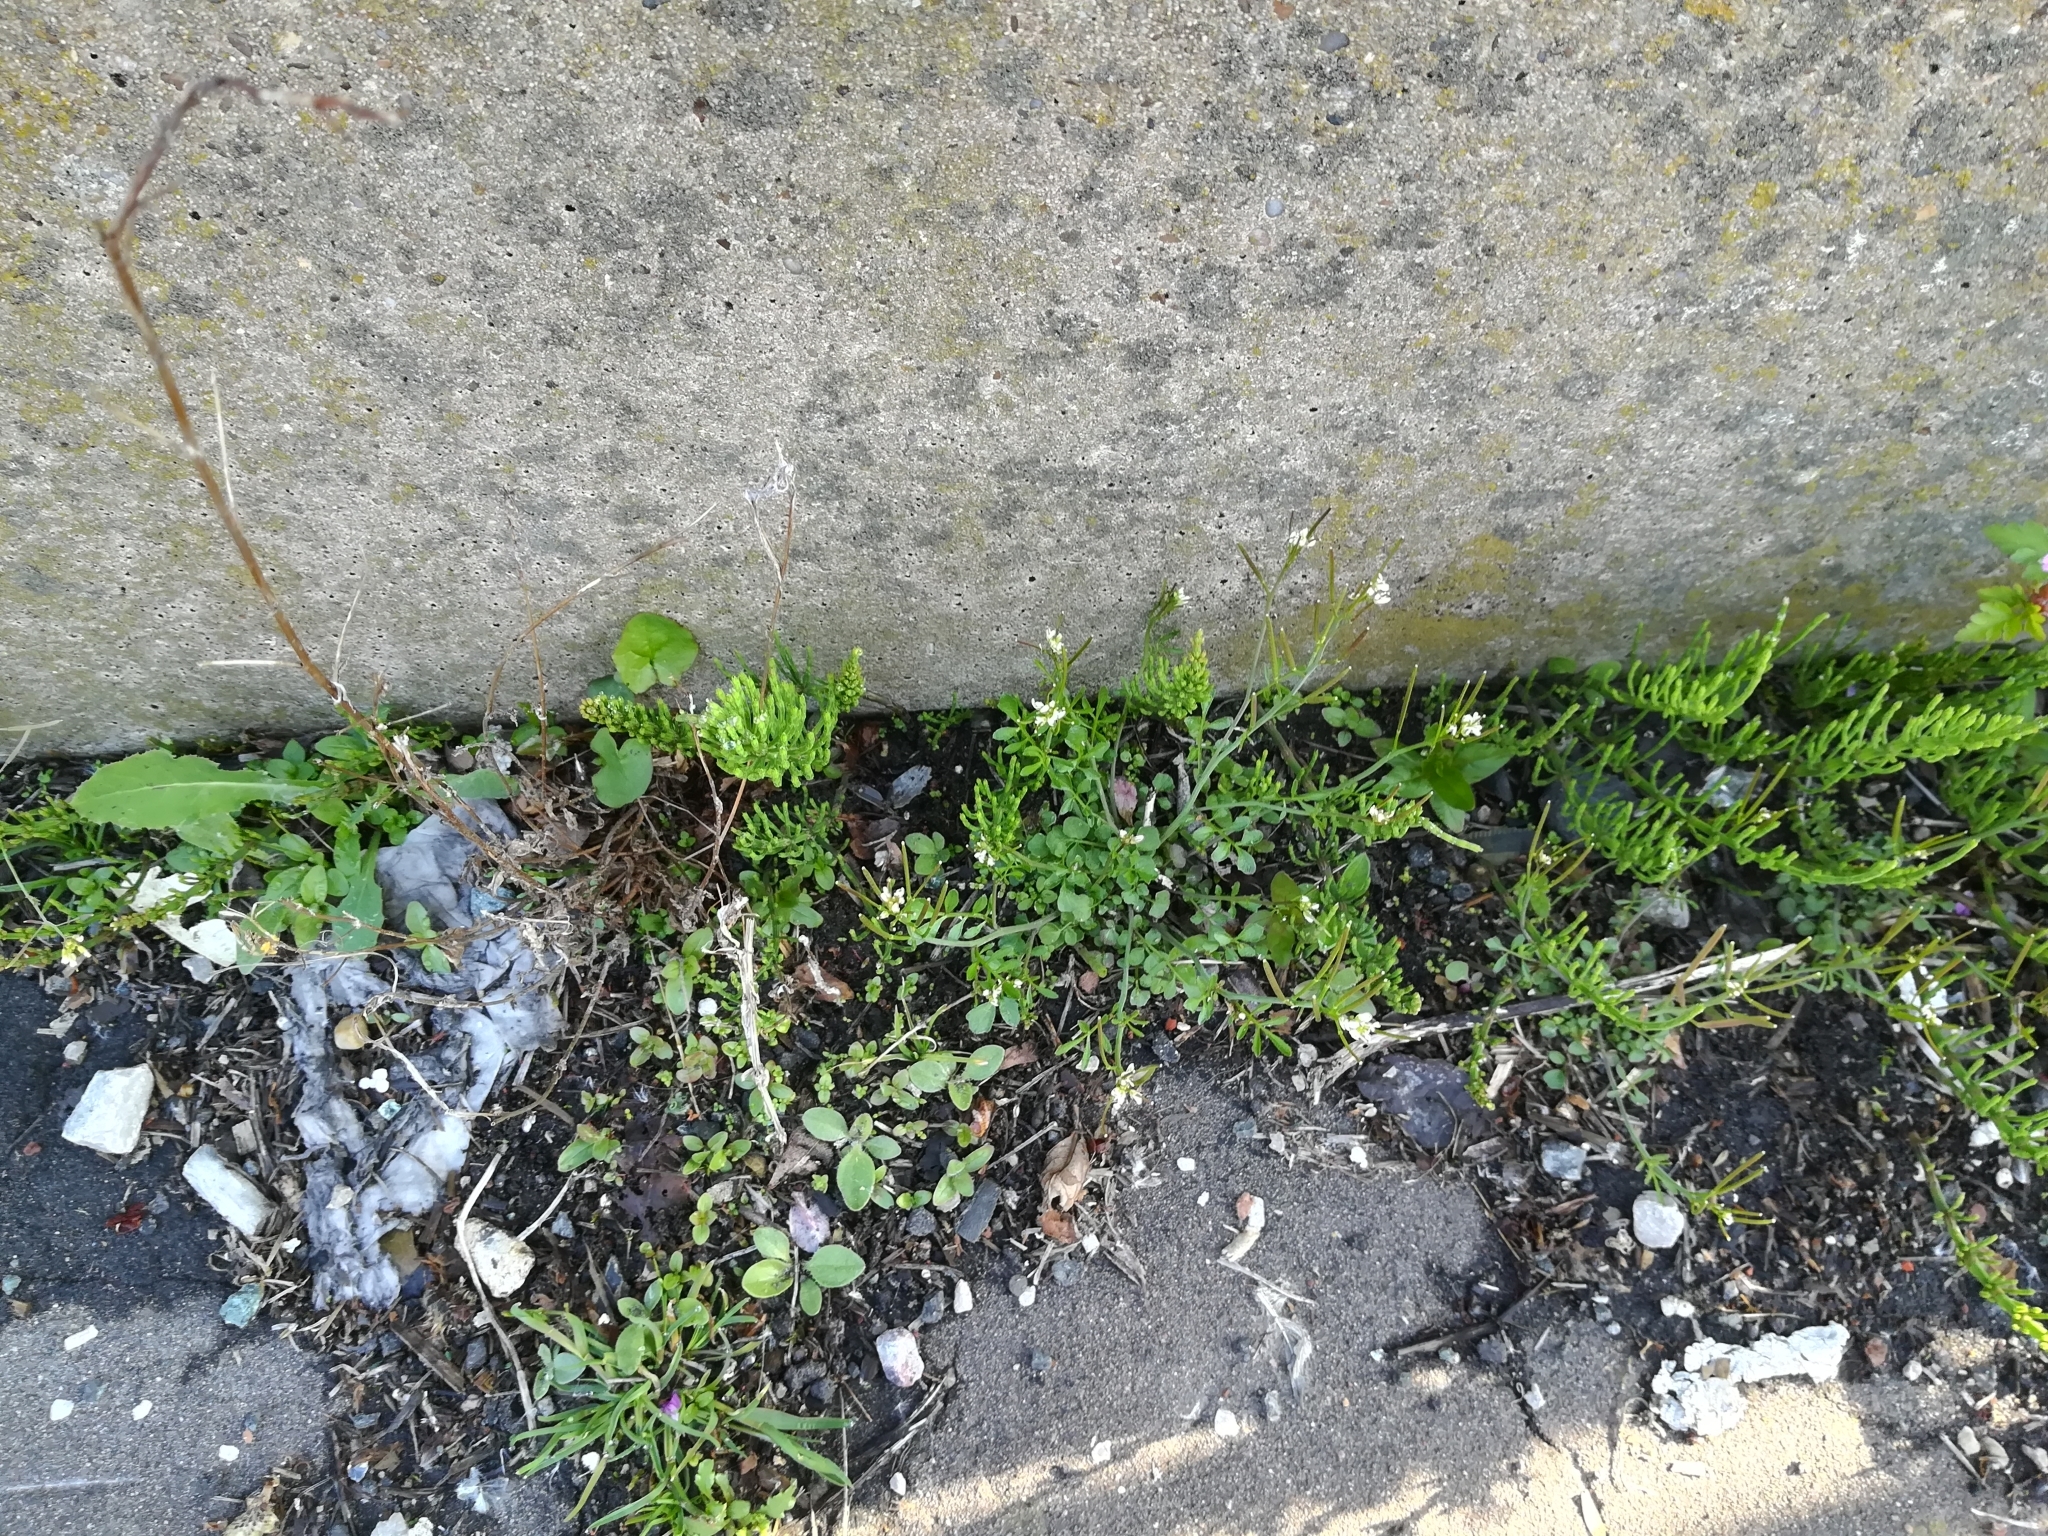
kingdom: Plantae
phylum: Tracheophyta
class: Magnoliopsida
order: Brassicales
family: Brassicaceae
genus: Cardamine
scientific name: Cardamine hirsuta
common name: Hairy bittercress
